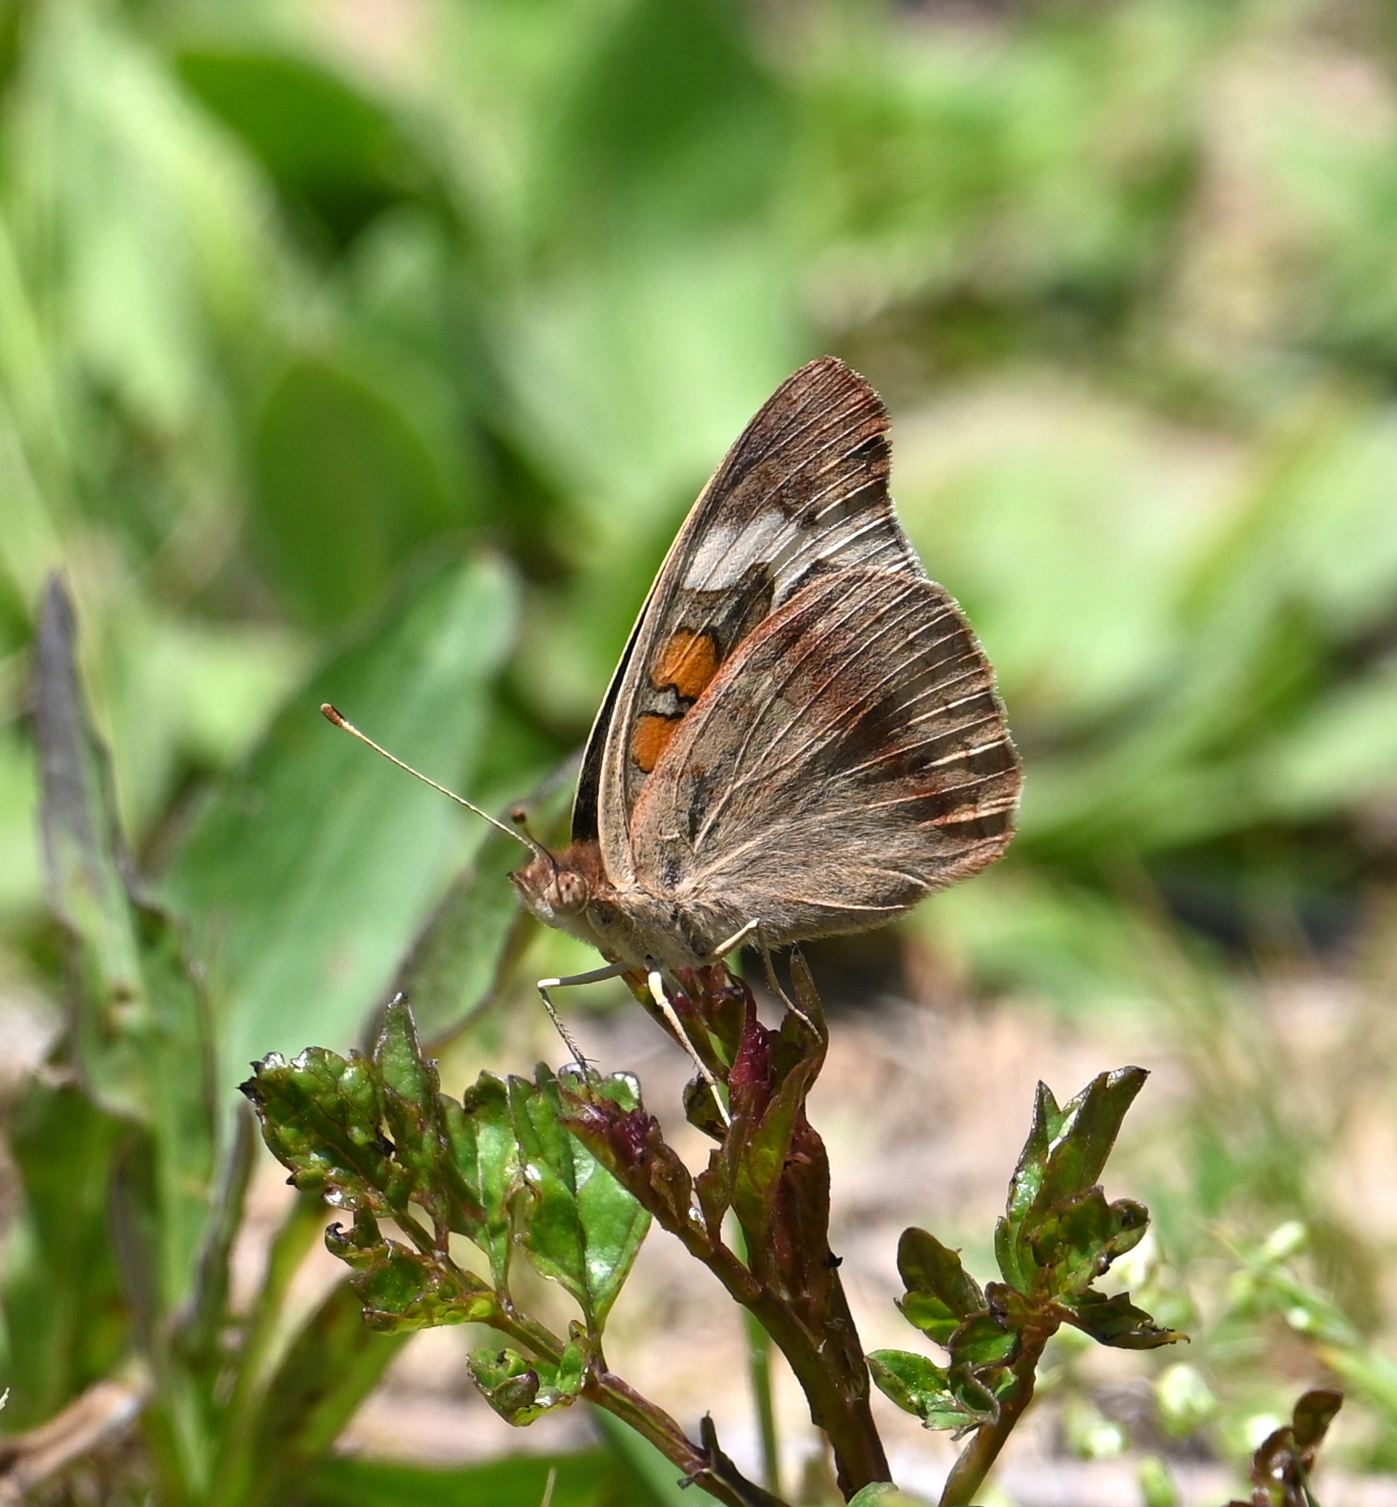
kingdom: Animalia
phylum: Arthropoda
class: Insecta
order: Lepidoptera
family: Nymphalidae
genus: Junonia
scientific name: Junonia coenia
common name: Common buckeye
